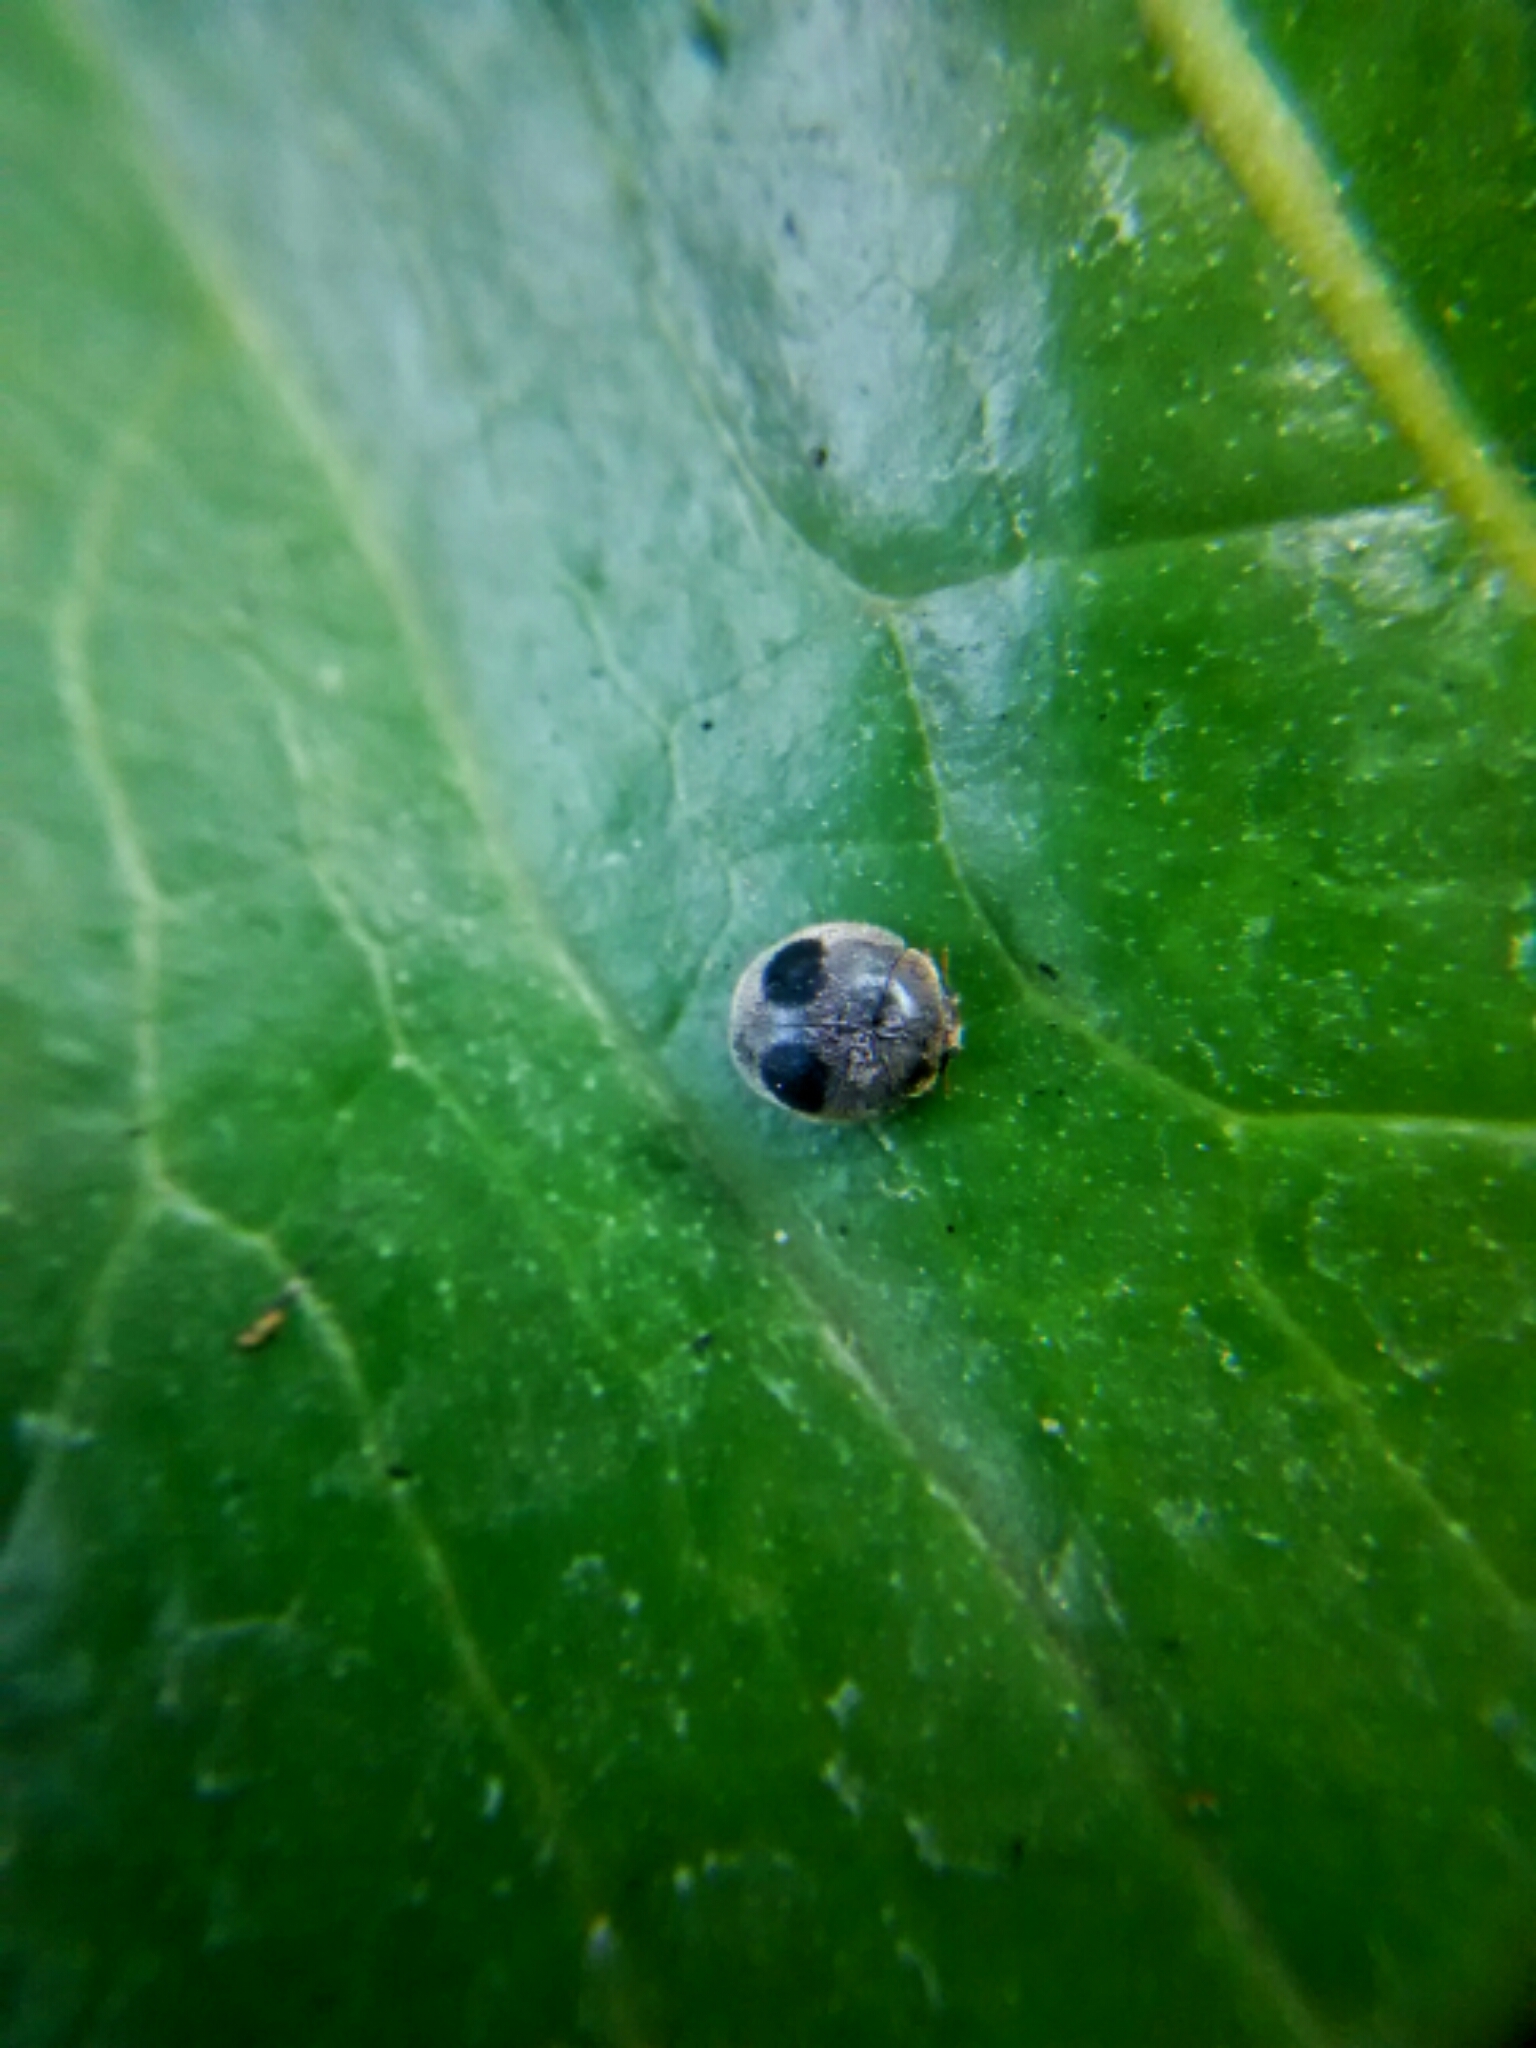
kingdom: Animalia
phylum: Arthropoda
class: Insecta
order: Coleoptera
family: Coccinellidae
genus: Azya
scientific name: Azya orbigera
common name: Ladybird beetle
